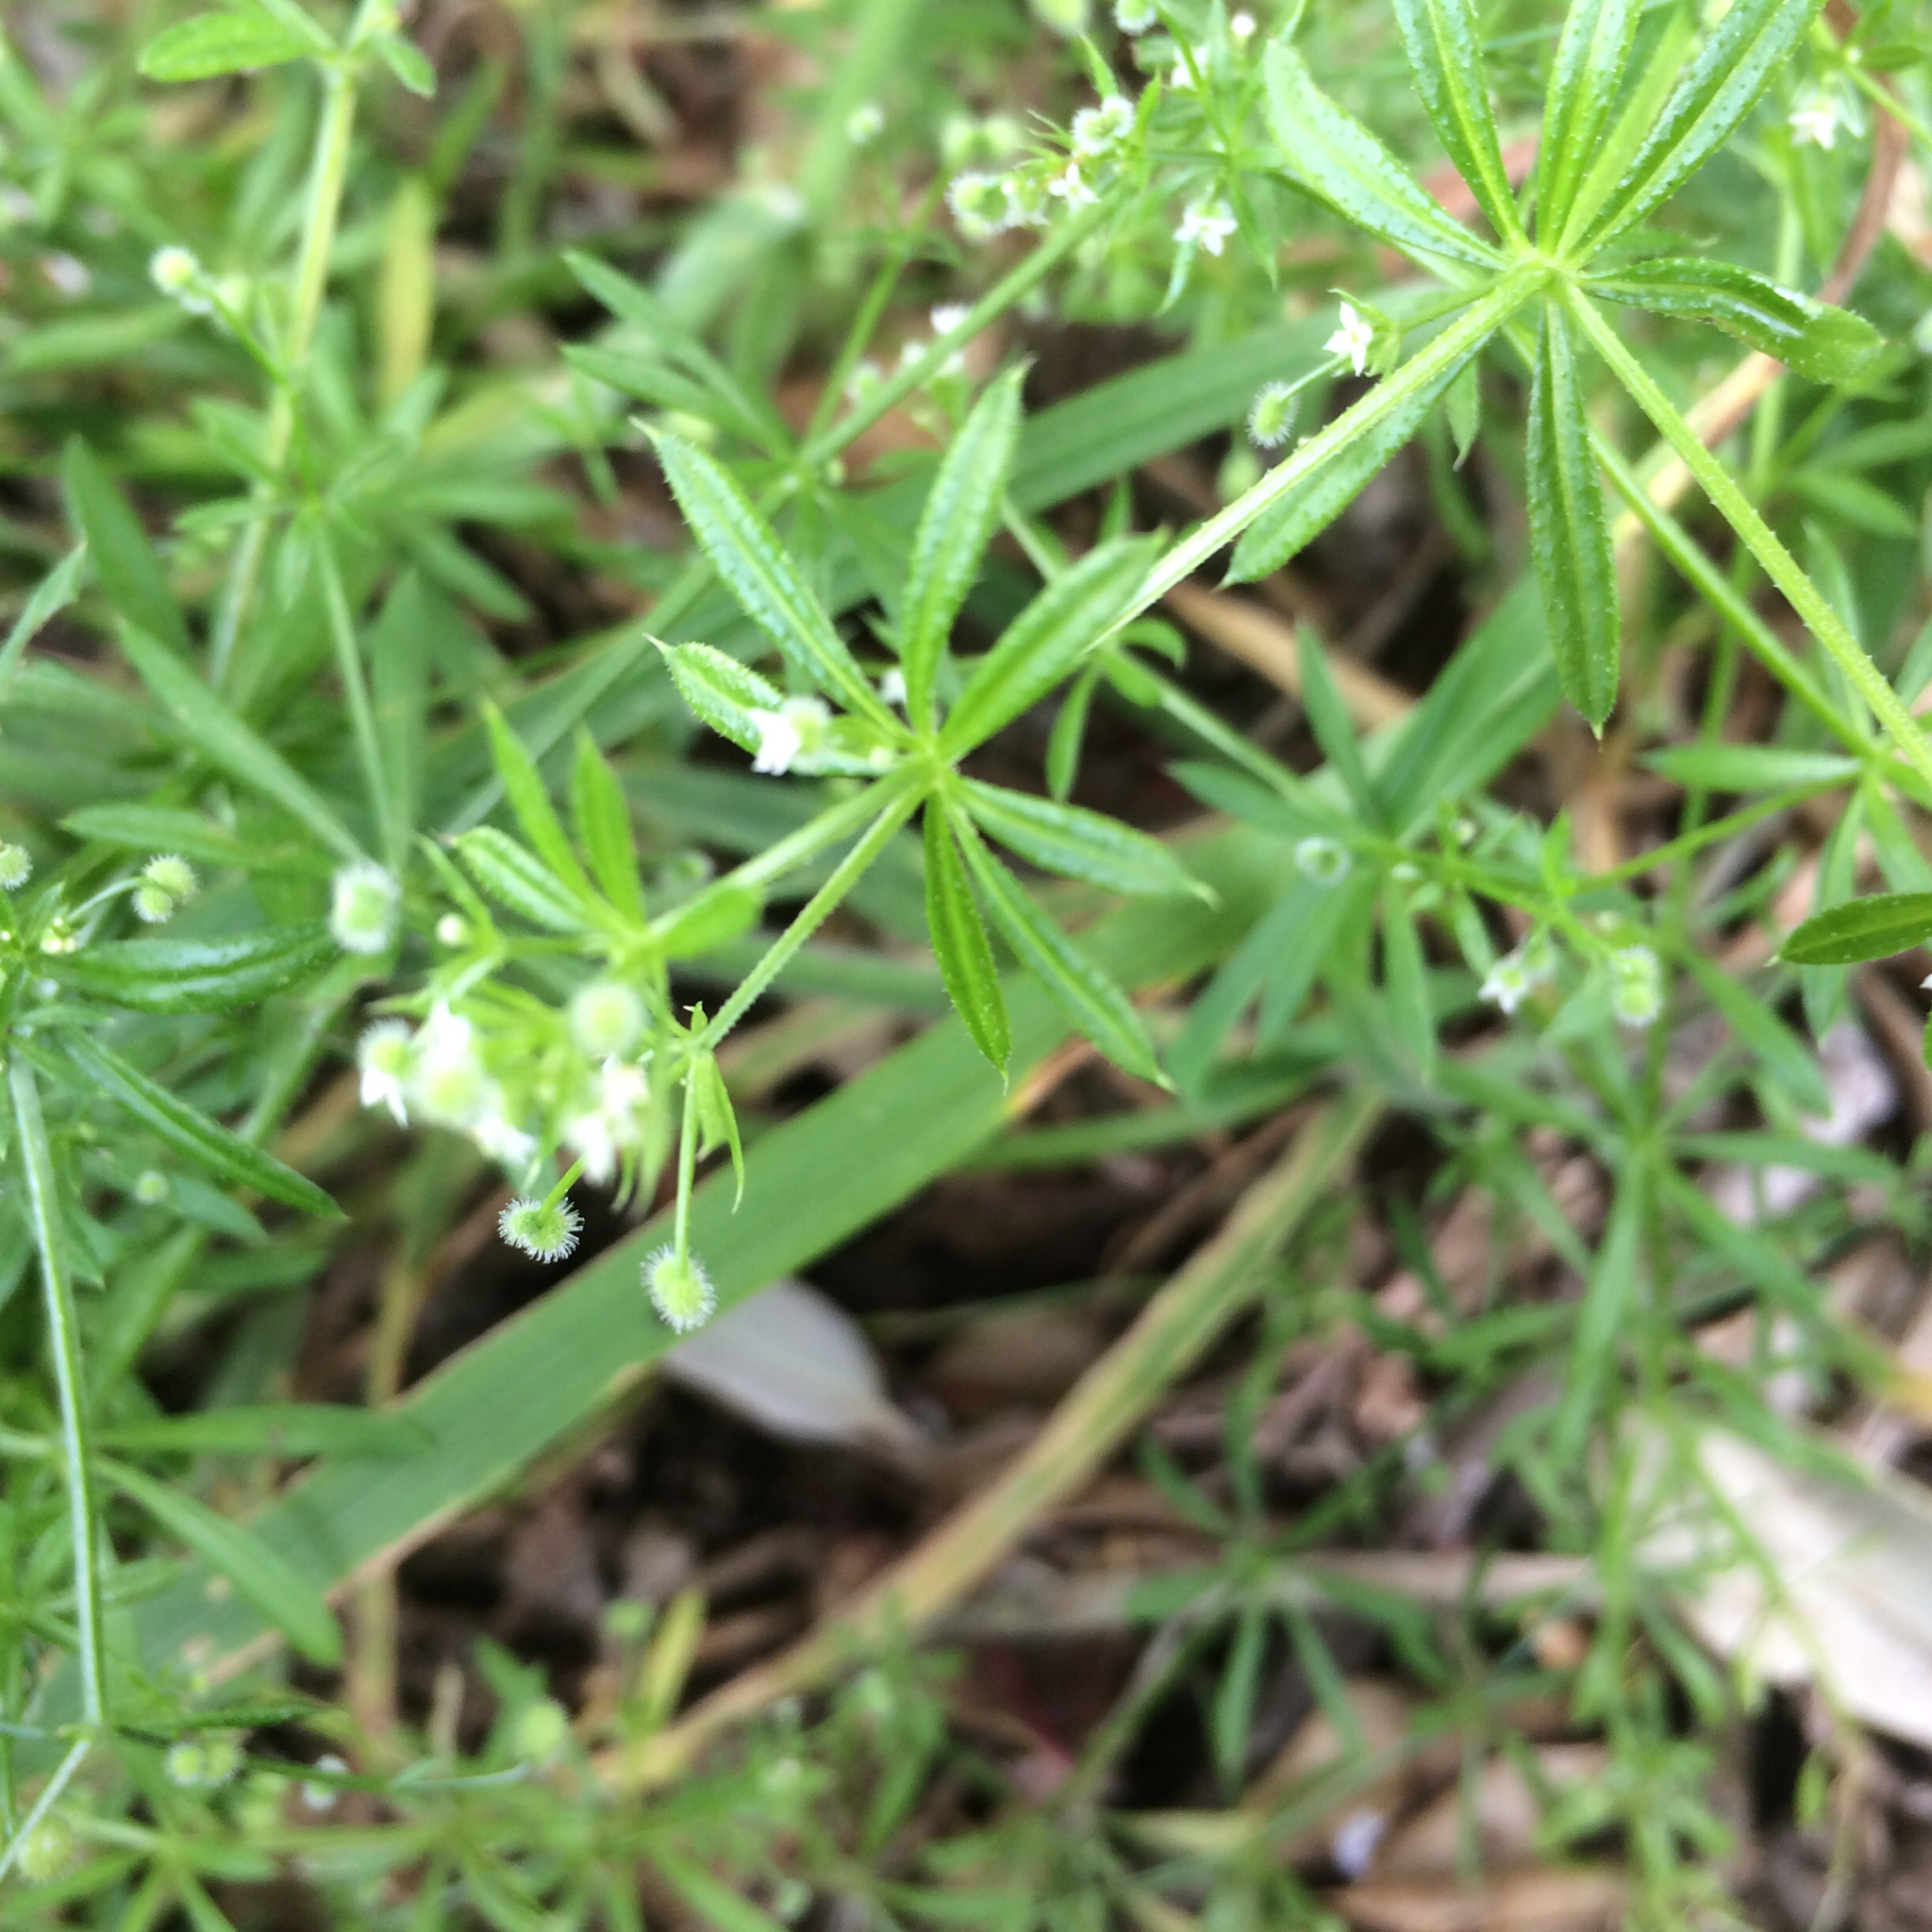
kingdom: Plantae
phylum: Tracheophyta
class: Magnoliopsida
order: Gentianales
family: Rubiaceae
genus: Galium
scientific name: Galium aparine
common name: Cleavers
